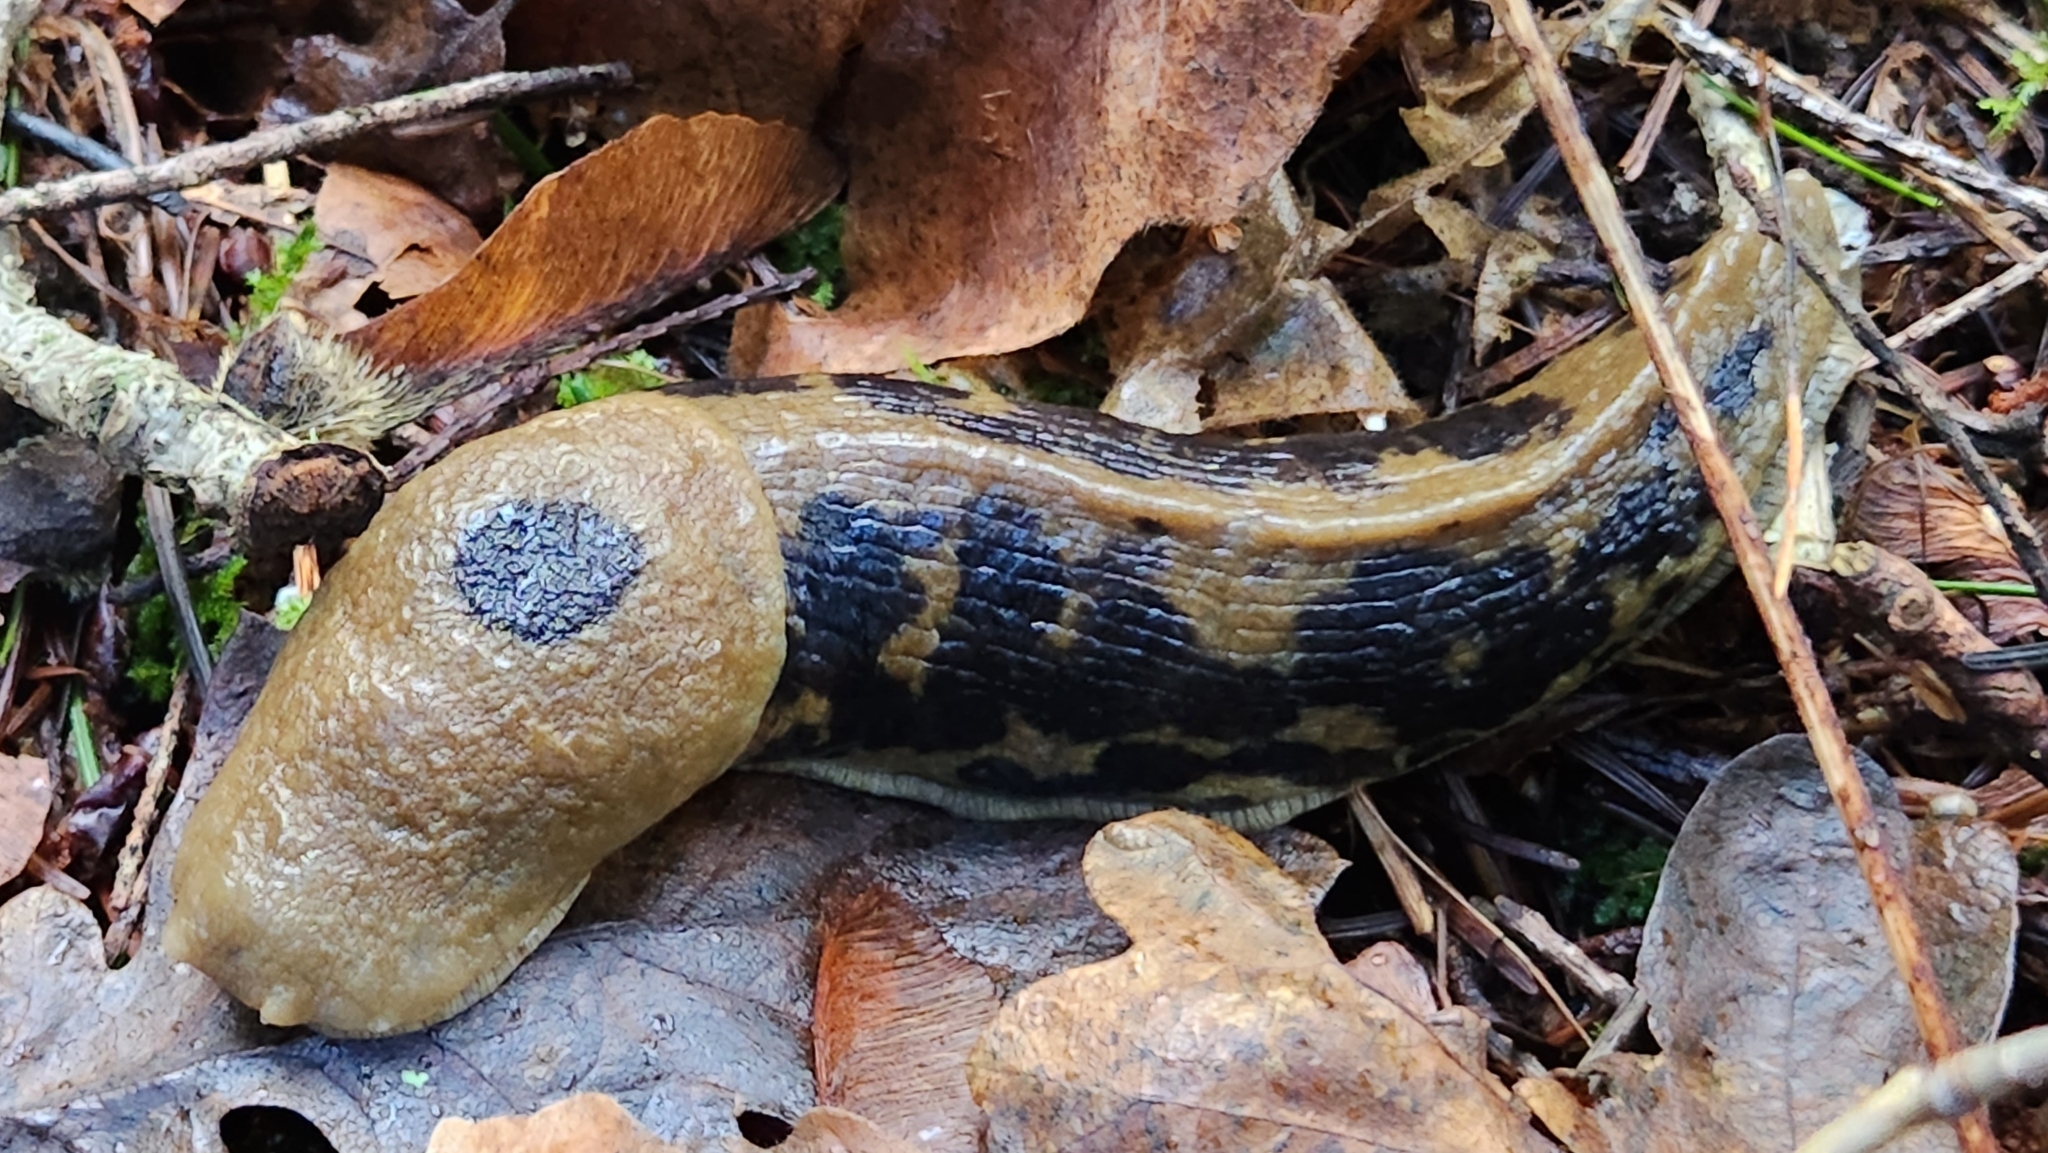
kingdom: Animalia
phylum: Mollusca
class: Gastropoda
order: Stylommatophora
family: Ariolimacidae
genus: Ariolimax
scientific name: Ariolimax columbianus
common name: Pacific banana slug
